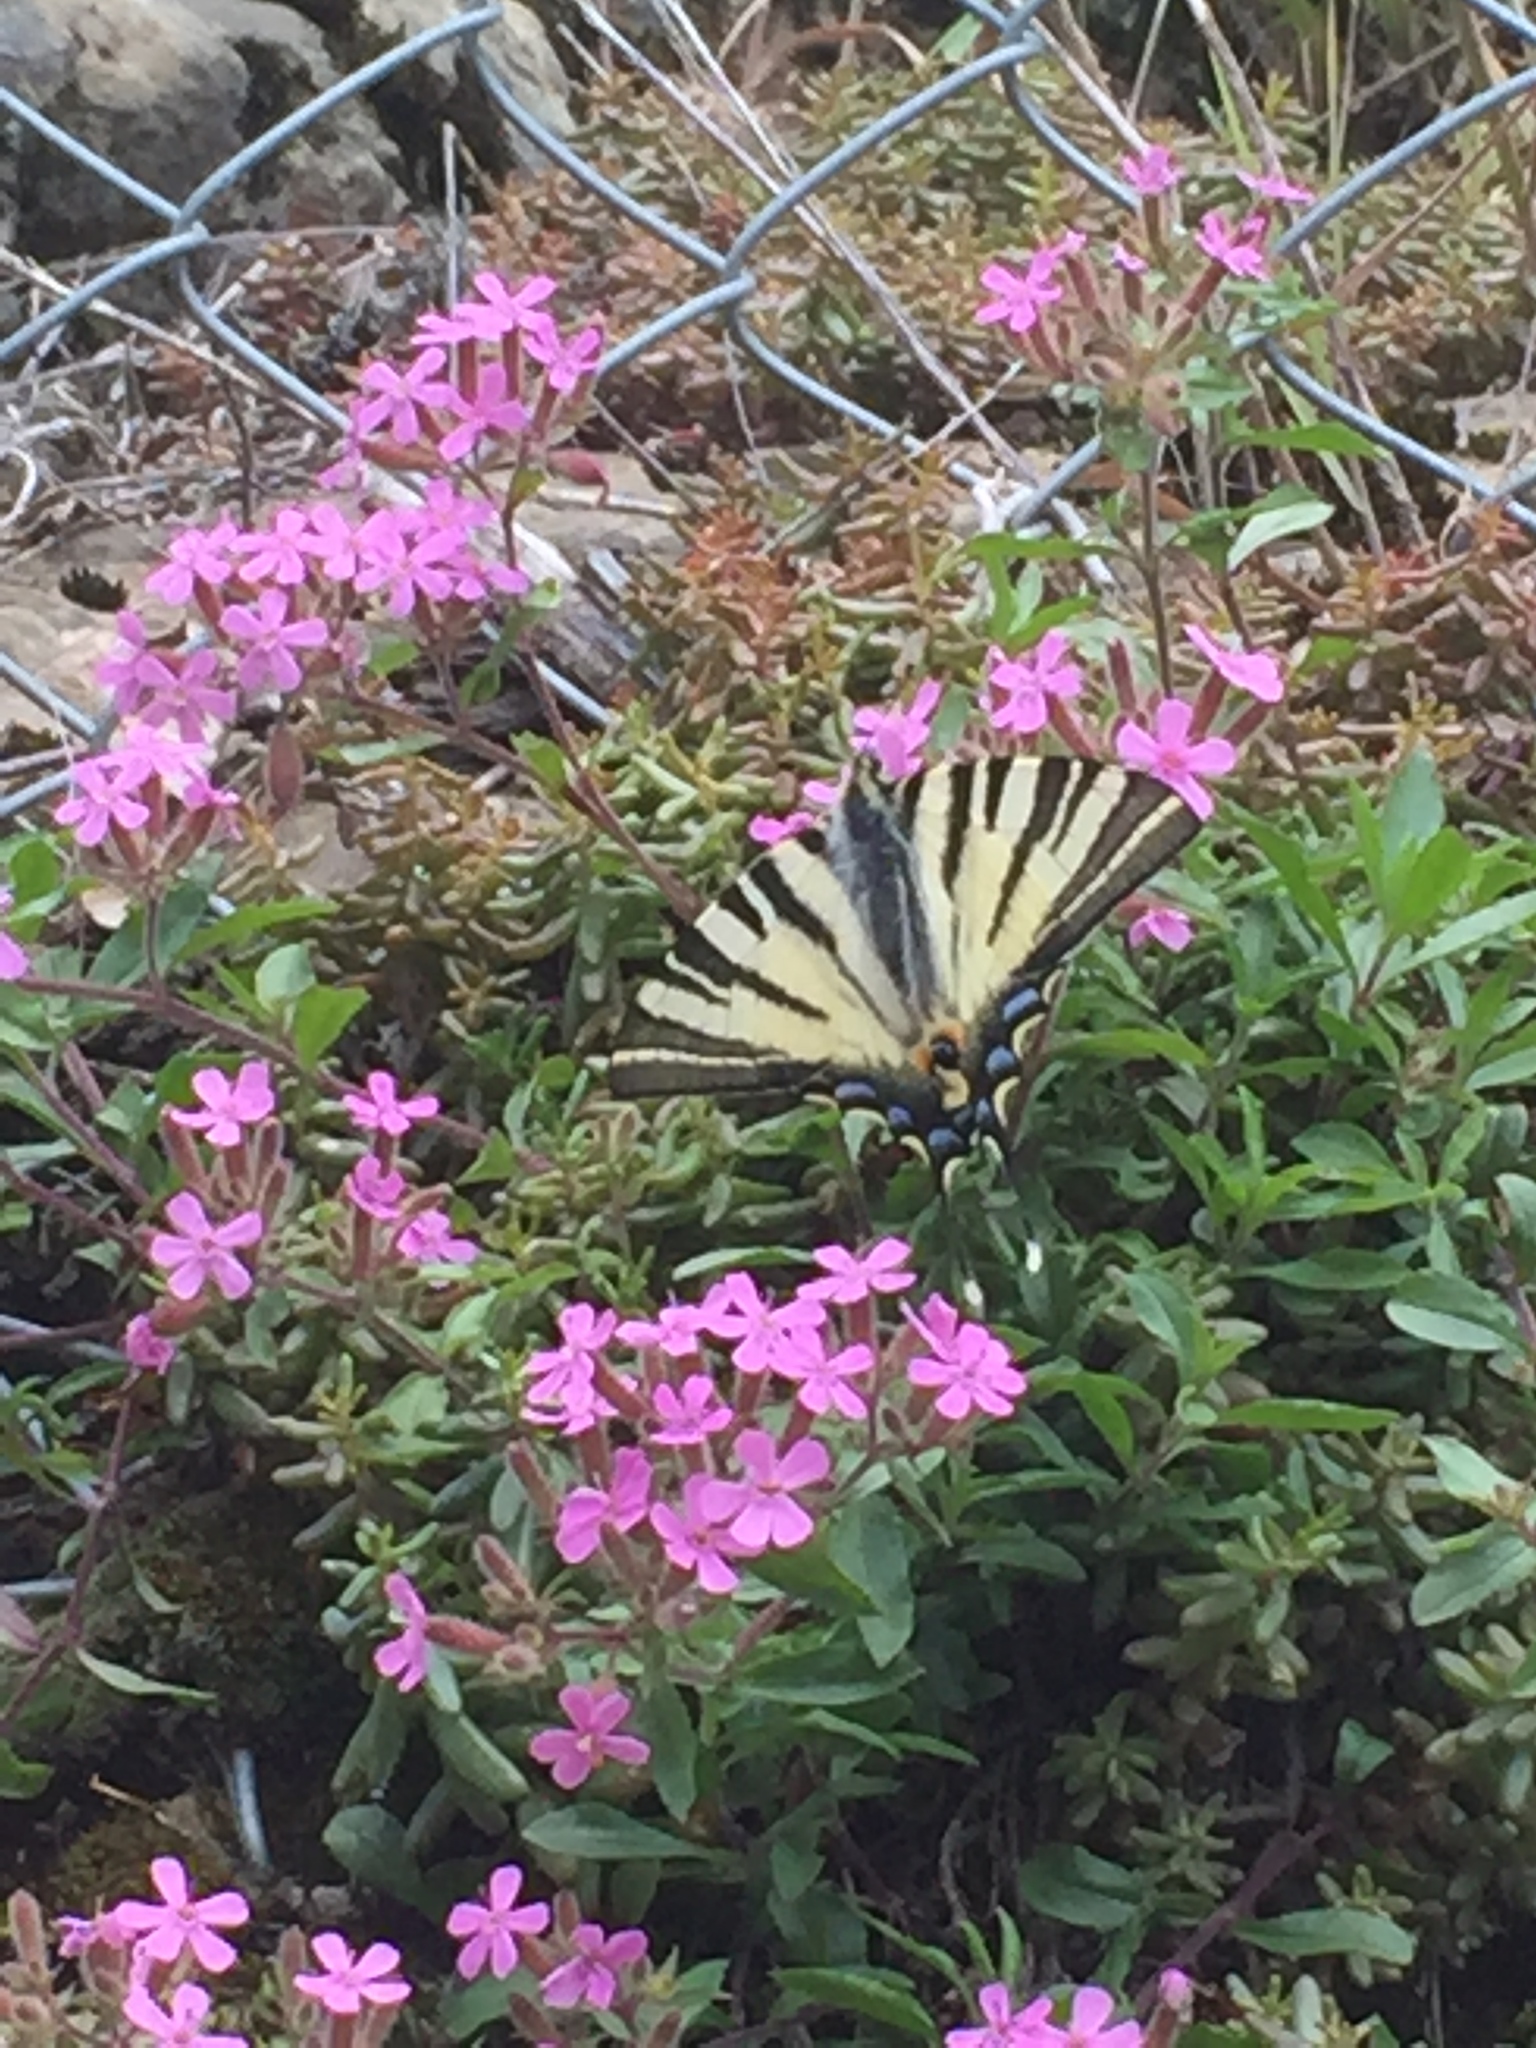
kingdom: Animalia
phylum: Arthropoda
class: Insecta
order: Lepidoptera
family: Papilionidae
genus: Iphiclides
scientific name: Iphiclides podalirius
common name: Scarce swallowtail
